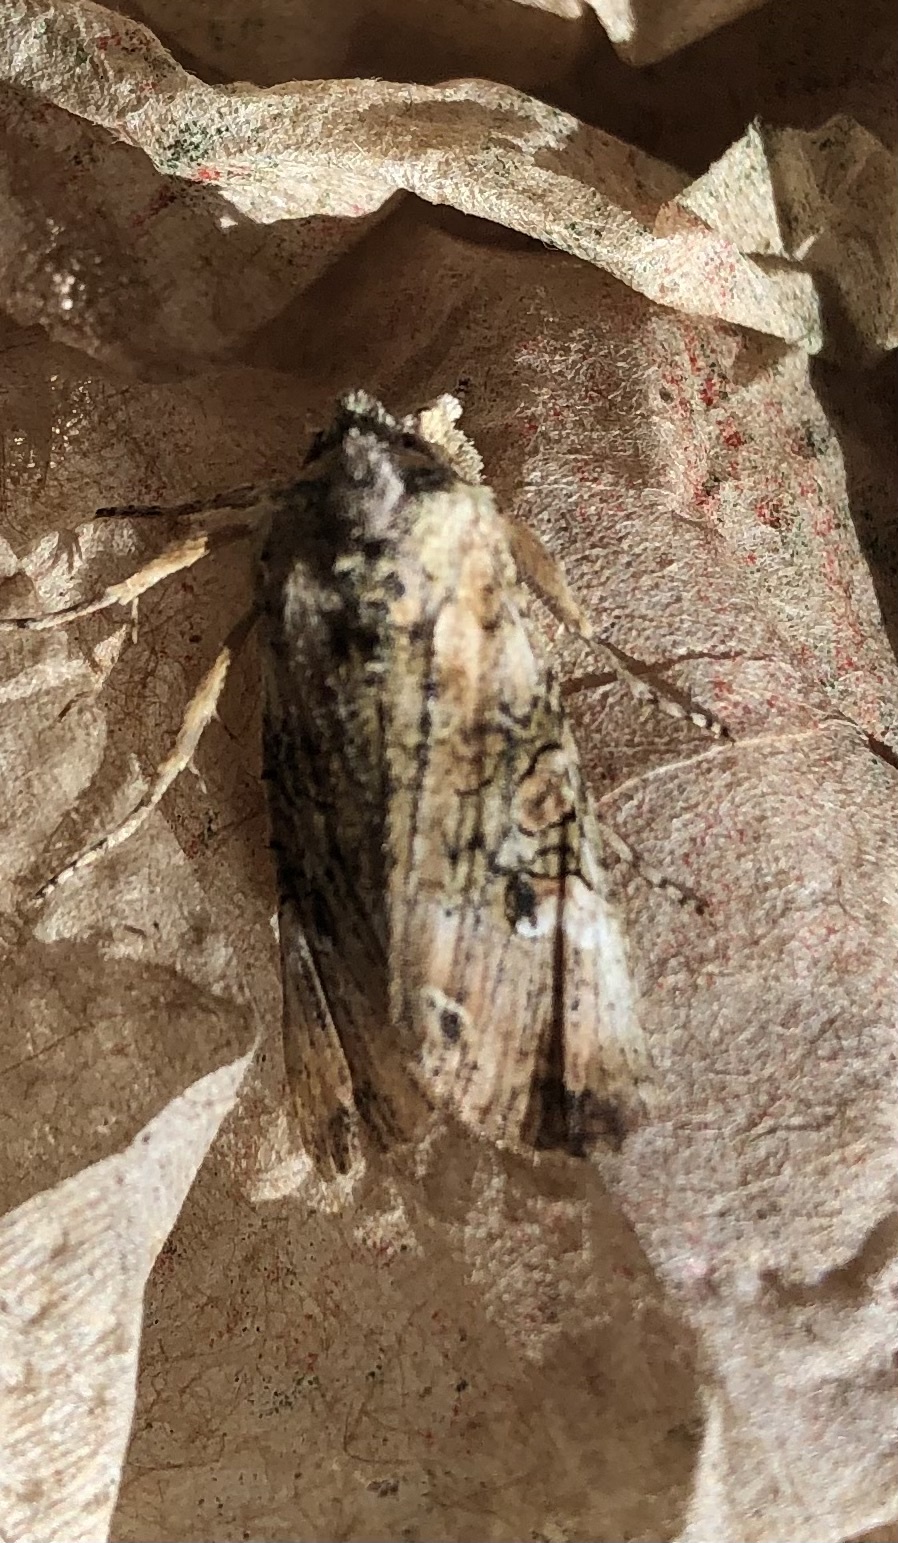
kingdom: Animalia
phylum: Arthropoda
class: Insecta
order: Lepidoptera
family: Noctuidae
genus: Meterana
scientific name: Meterana levis
